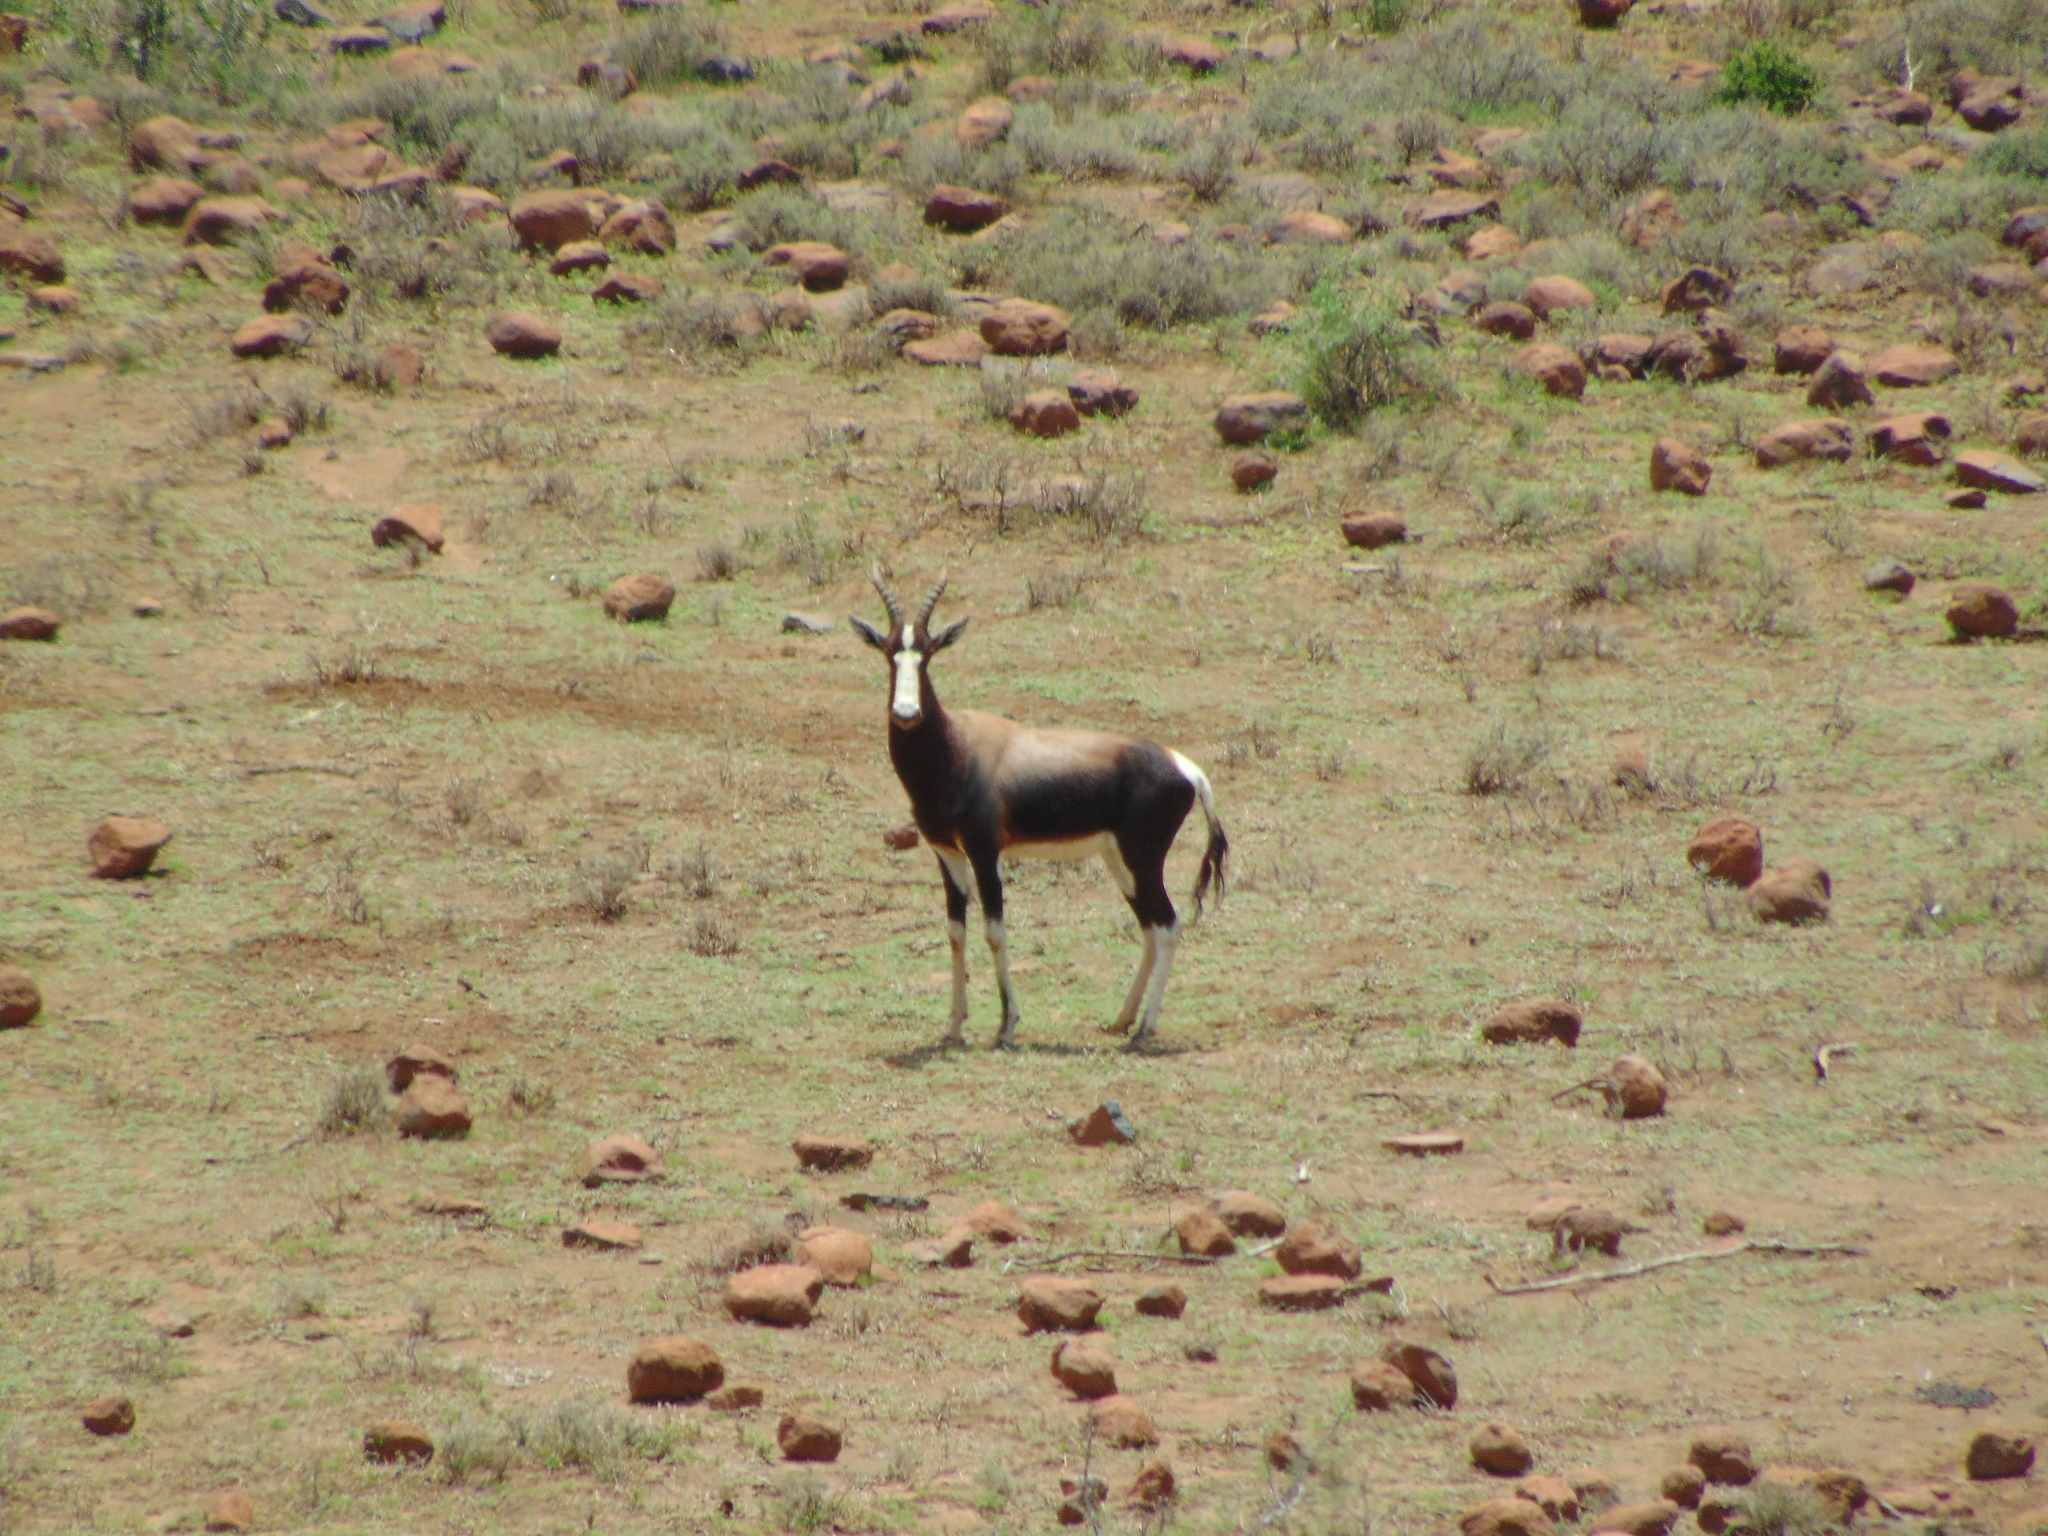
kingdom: Animalia
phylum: Chordata
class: Mammalia
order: Artiodactyla
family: Bovidae
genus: Damaliscus
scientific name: Damaliscus pygargus
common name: Bontebok
